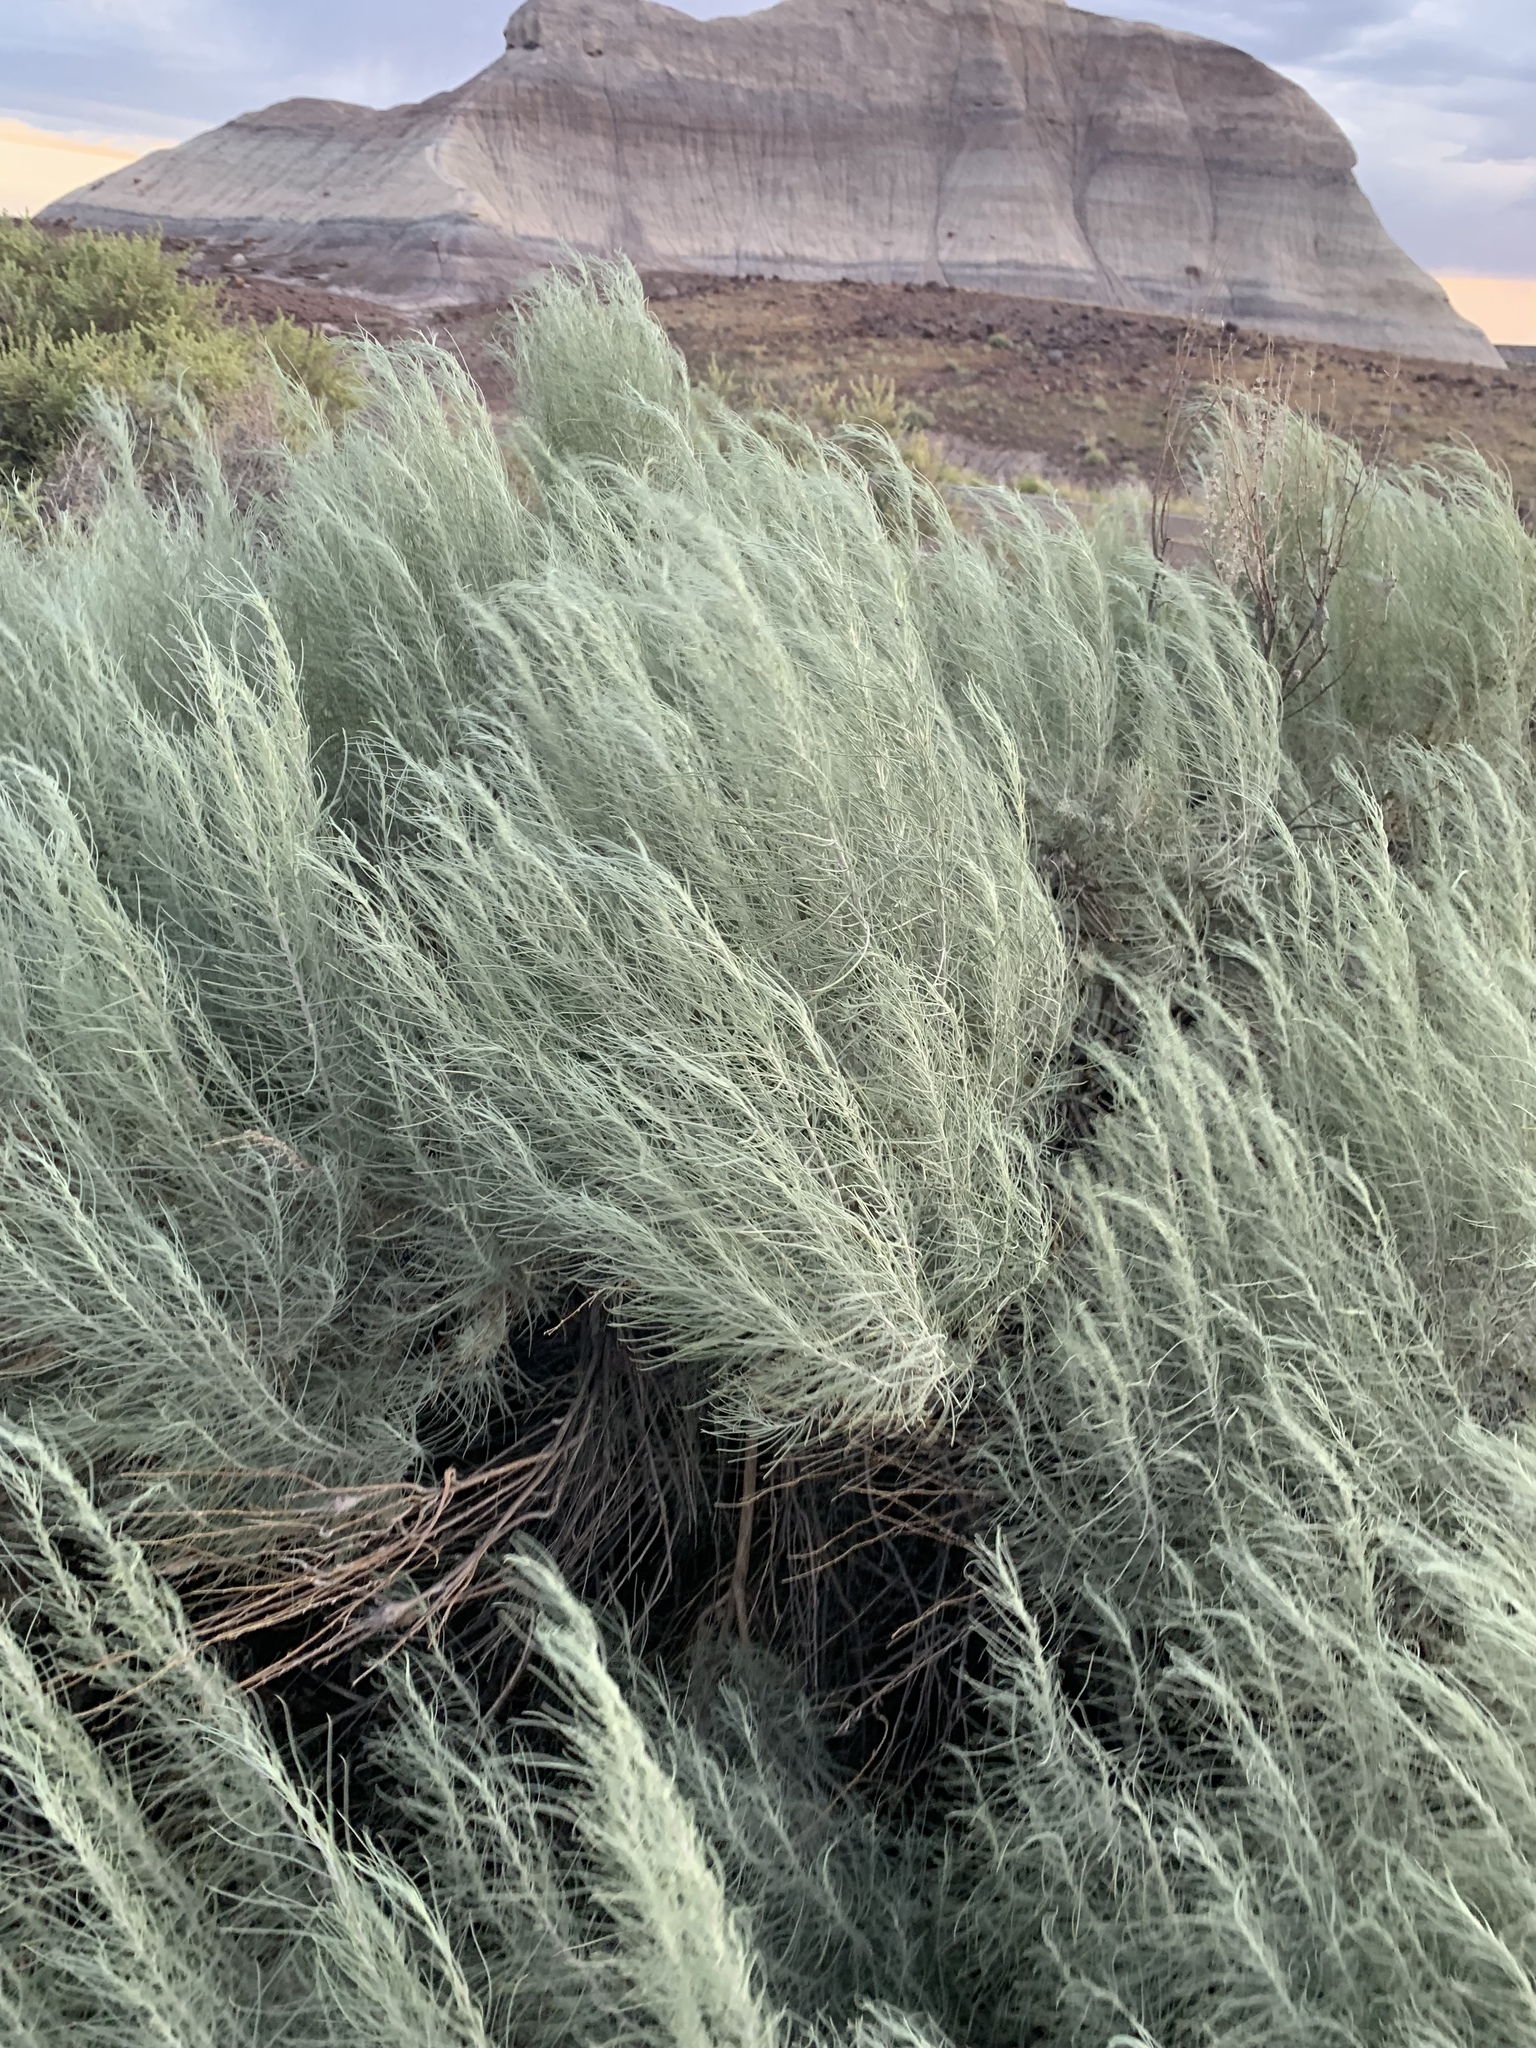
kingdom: Plantae
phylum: Tracheophyta
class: Magnoliopsida
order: Asterales
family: Asteraceae
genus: Artemisia
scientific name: Artemisia filifolia
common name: Sand-sage
